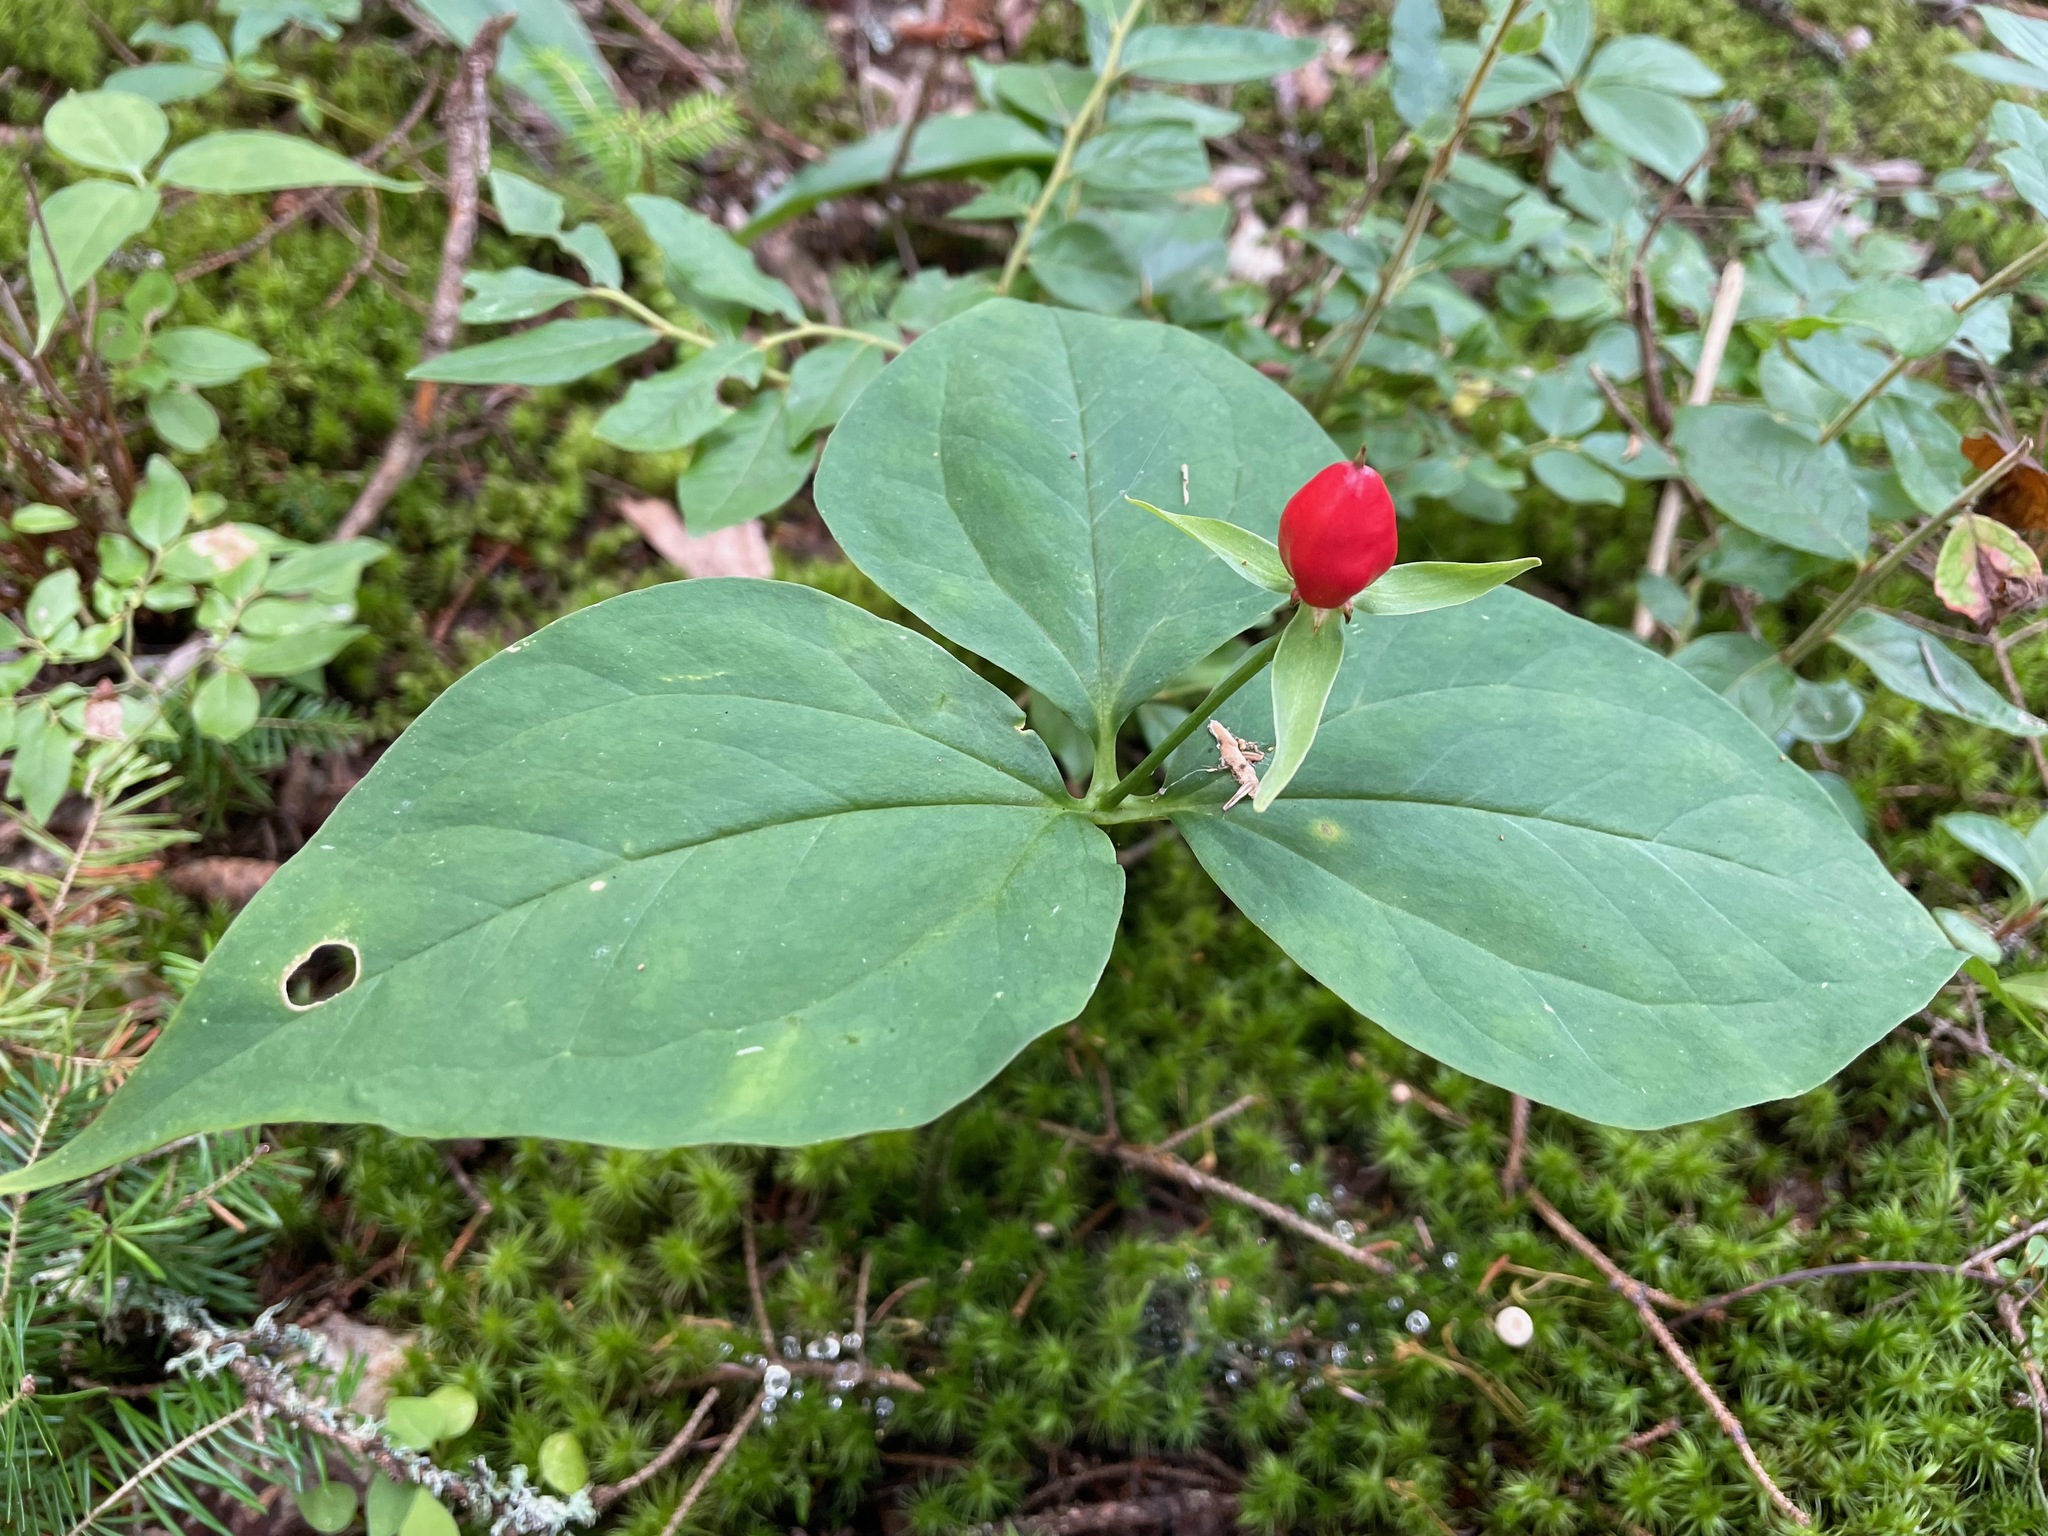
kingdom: Plantae
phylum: Tracheophyta
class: Liliopsida
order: Liliales
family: Melanthiaceae
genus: Trillium
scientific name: Trillium undulatum
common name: Paint trillium
